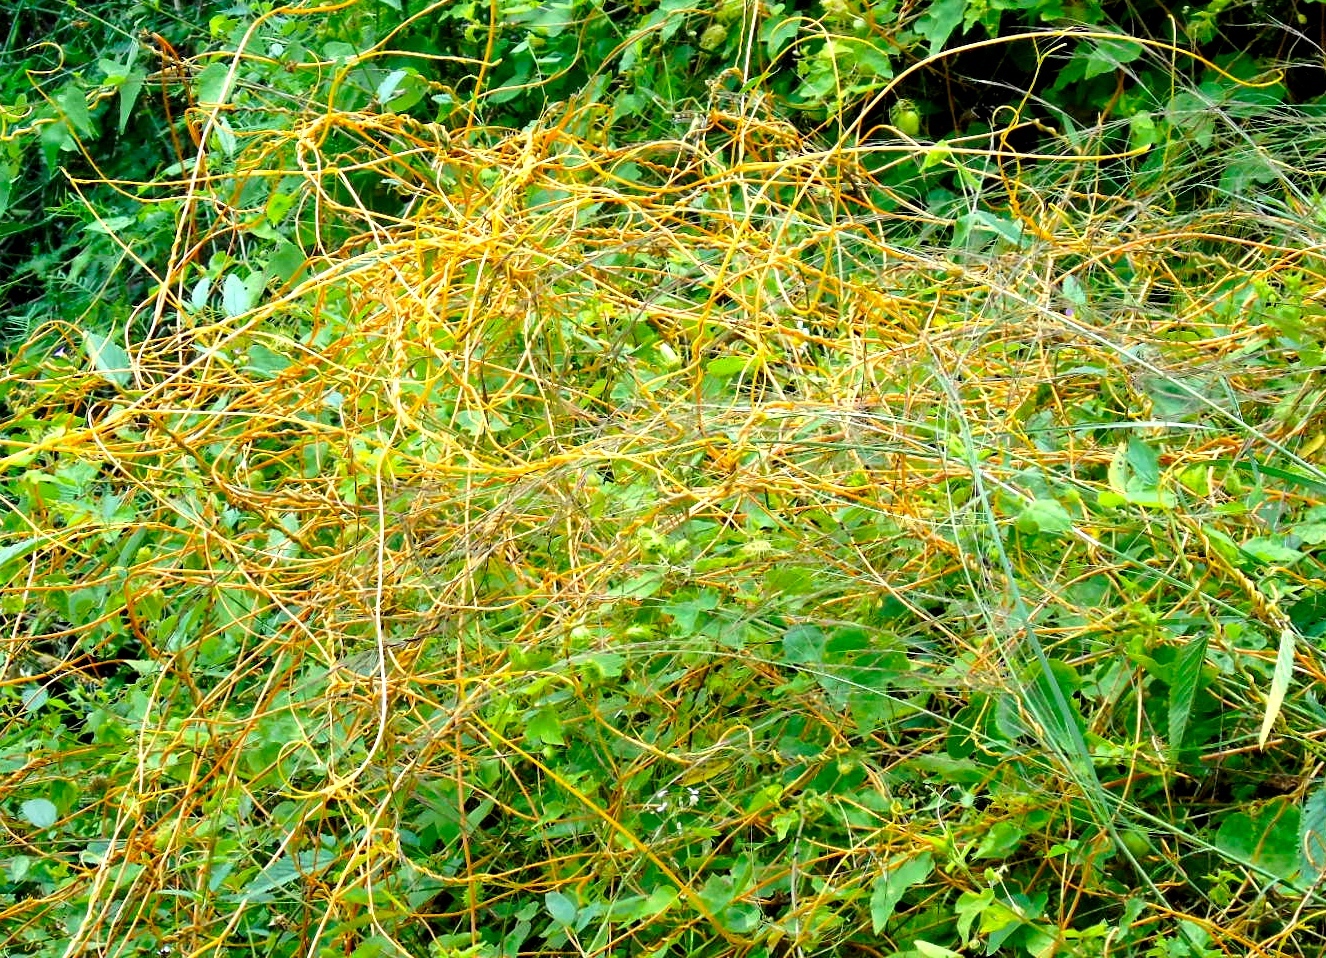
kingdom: Plantae
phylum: Tracheophyta
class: Magnoliopsida
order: Solanales
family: Convolvulaceae
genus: Cuscuta
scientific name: Cuscuta
